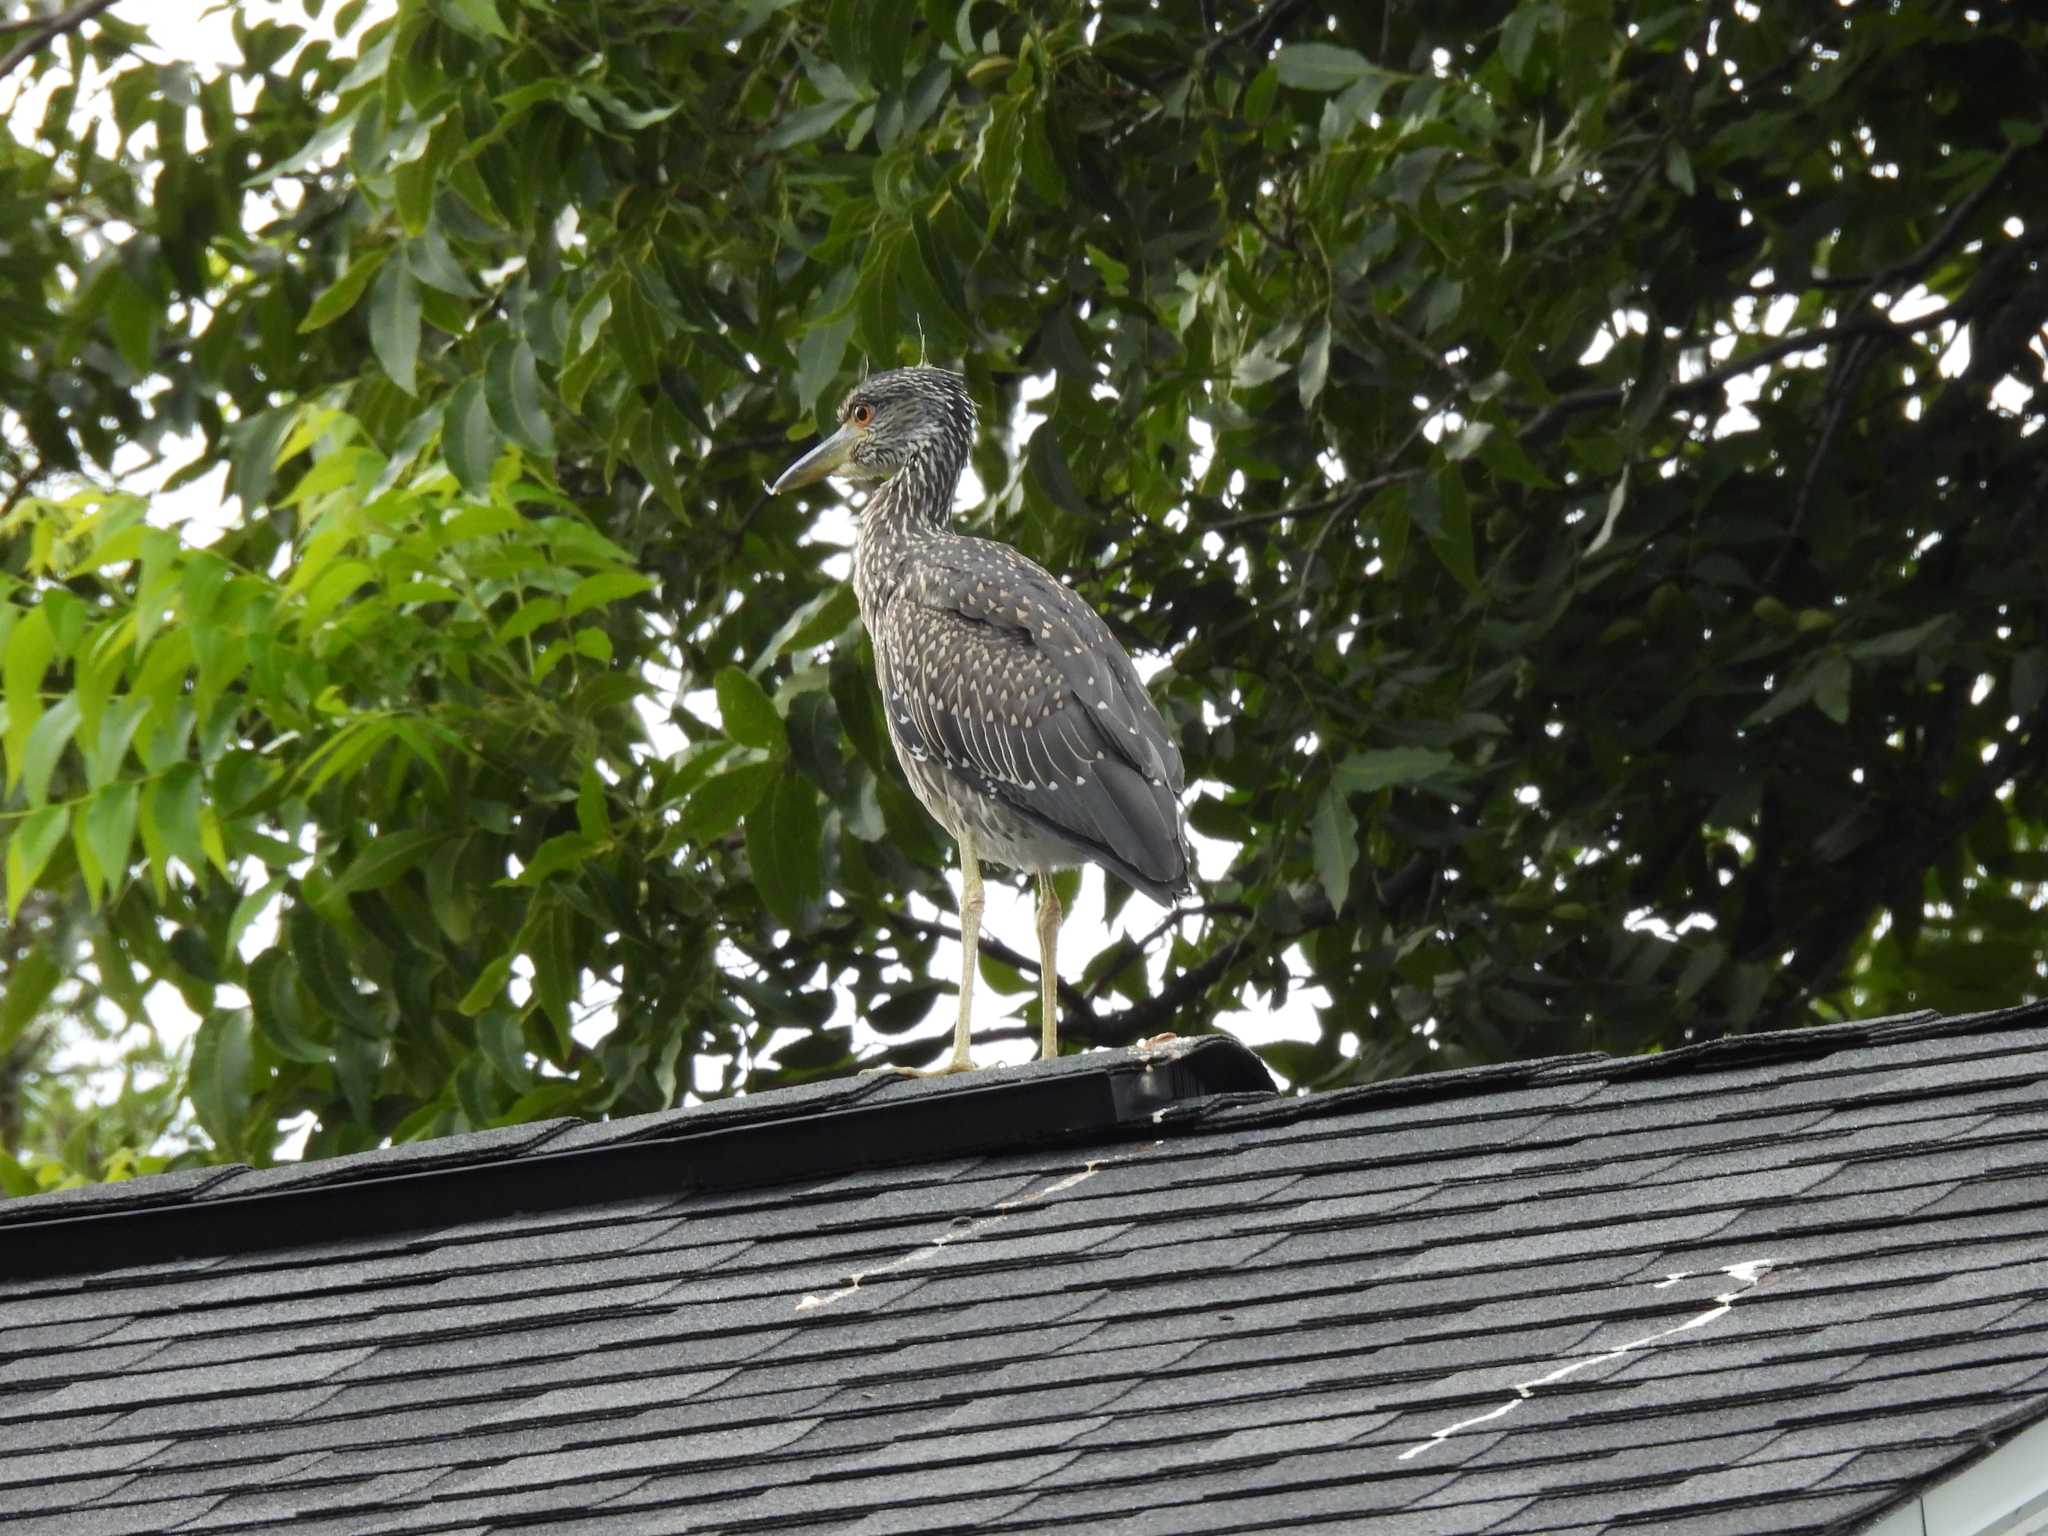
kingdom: Animalia
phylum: Chordata
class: Aves
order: Pelecaniformes
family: Ardeidae
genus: Nyctanassa
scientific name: Nyctanassa violacea
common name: Yellow-crowned night heron
